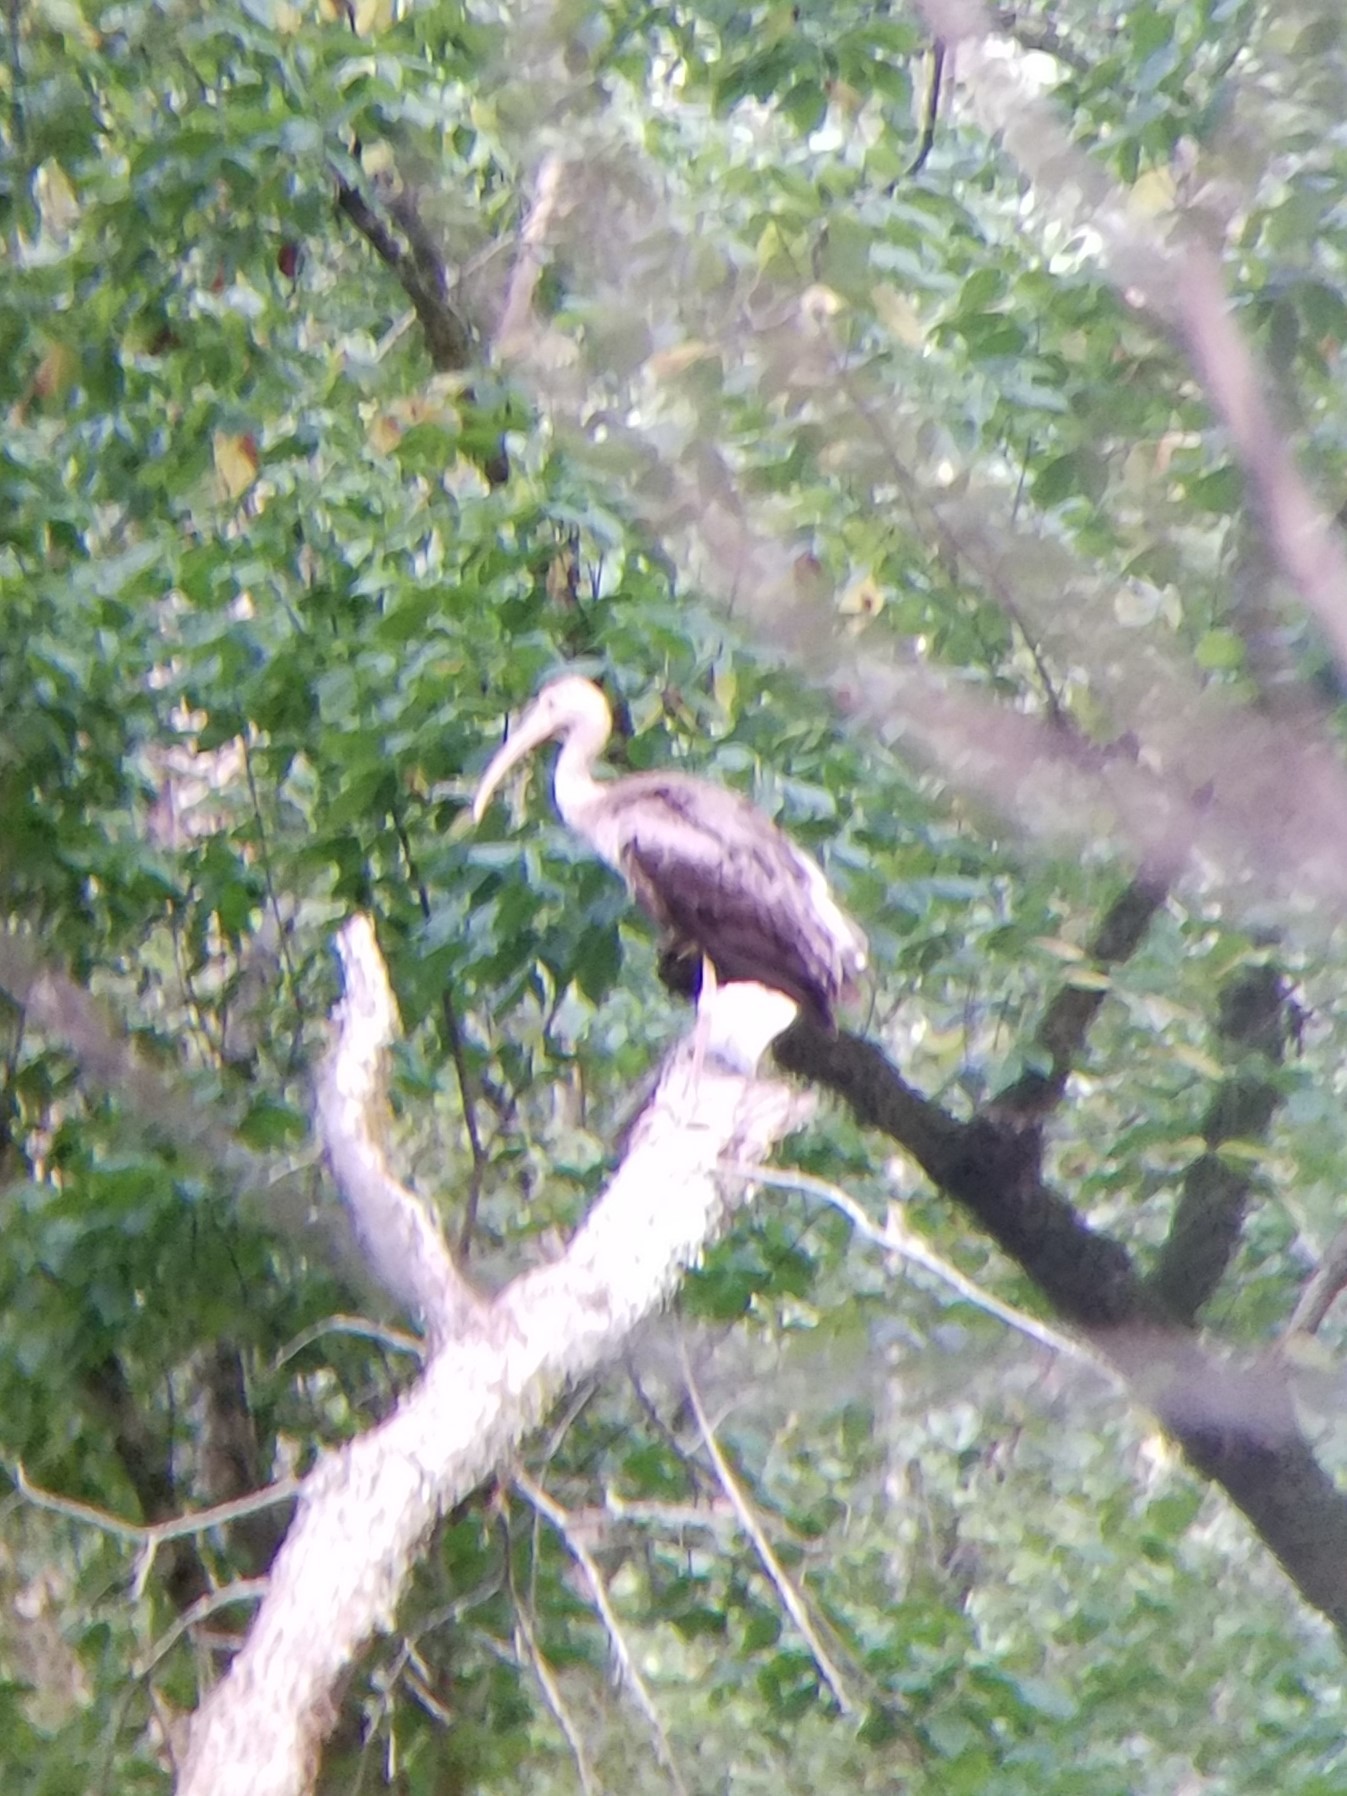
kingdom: Animalia
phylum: Chordata
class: Aves
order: Pelecaniformes
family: Threskiornithidae
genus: Eudocimus
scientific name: Eudocimus albus
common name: White ibis
